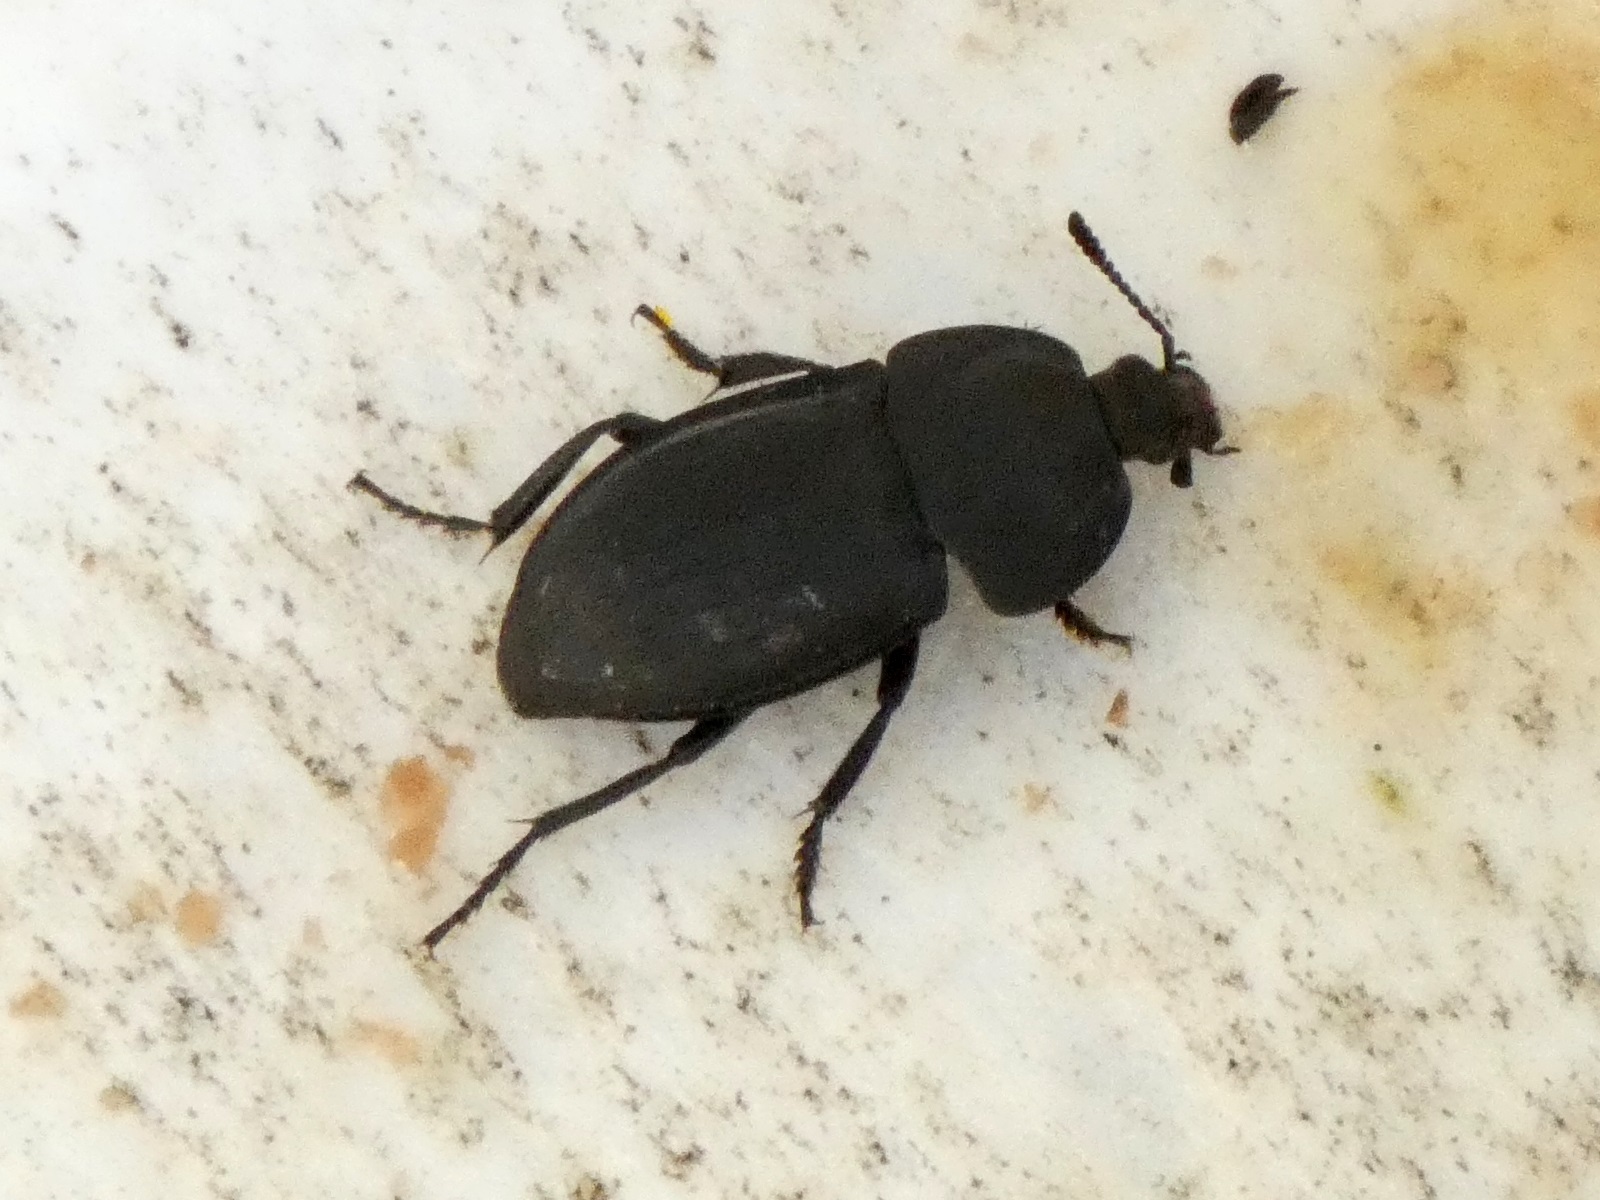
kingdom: Animalia
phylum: Arthropoda
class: Insecta
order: Coleoptera
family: Staphylinidae
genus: Silpha
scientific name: Silpha obscura
